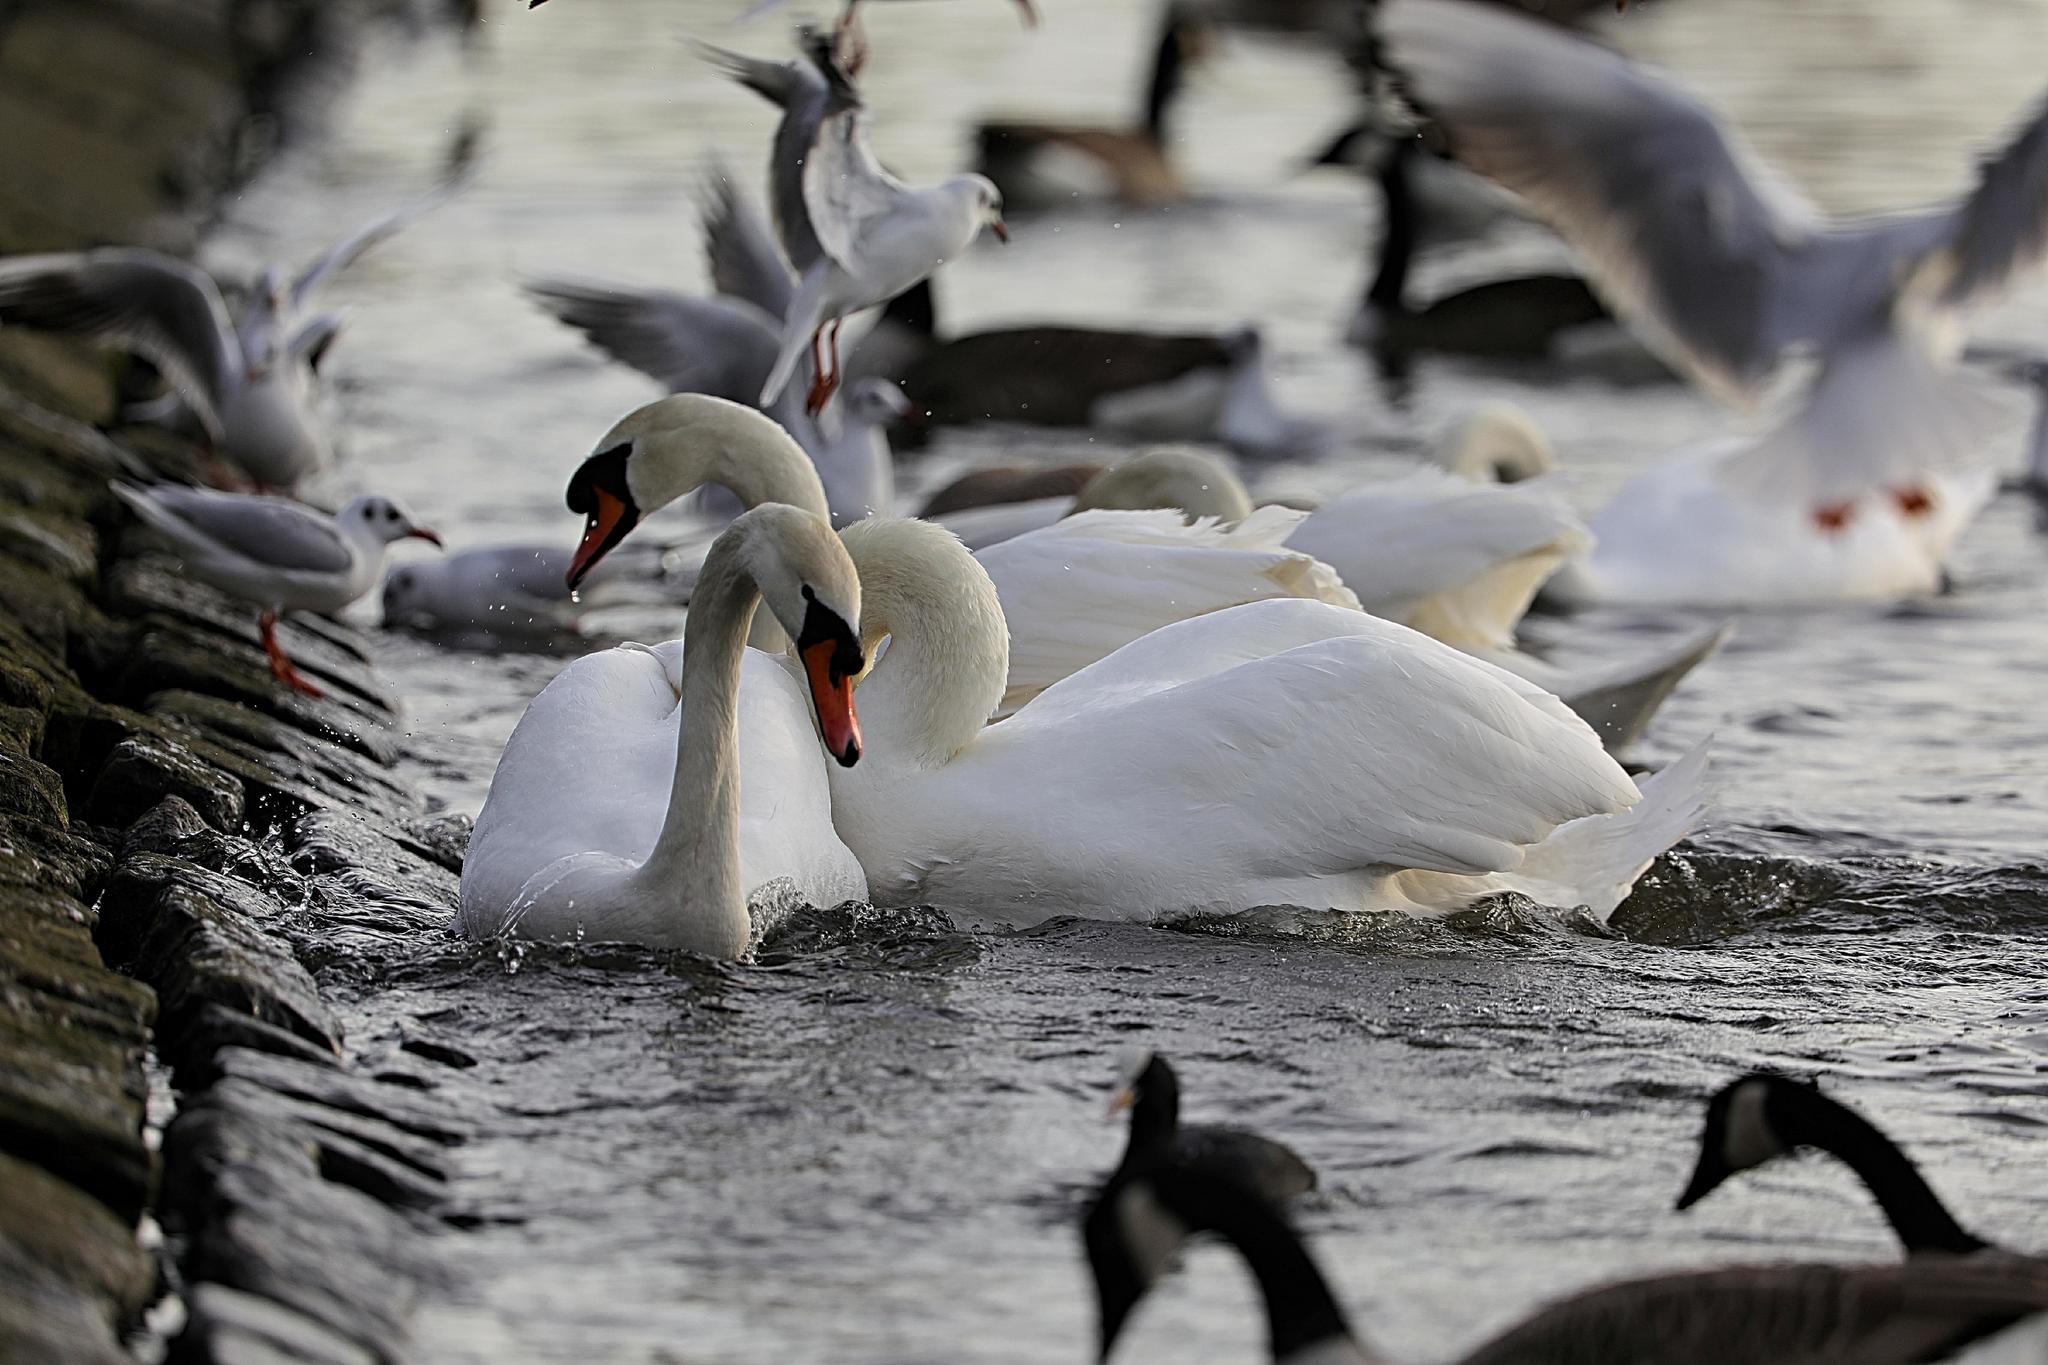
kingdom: Animalia
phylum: Chordata
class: Aves
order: Anseriformes
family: Anatidae
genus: Cygnus
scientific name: Cygnus olor
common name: Mute swan
